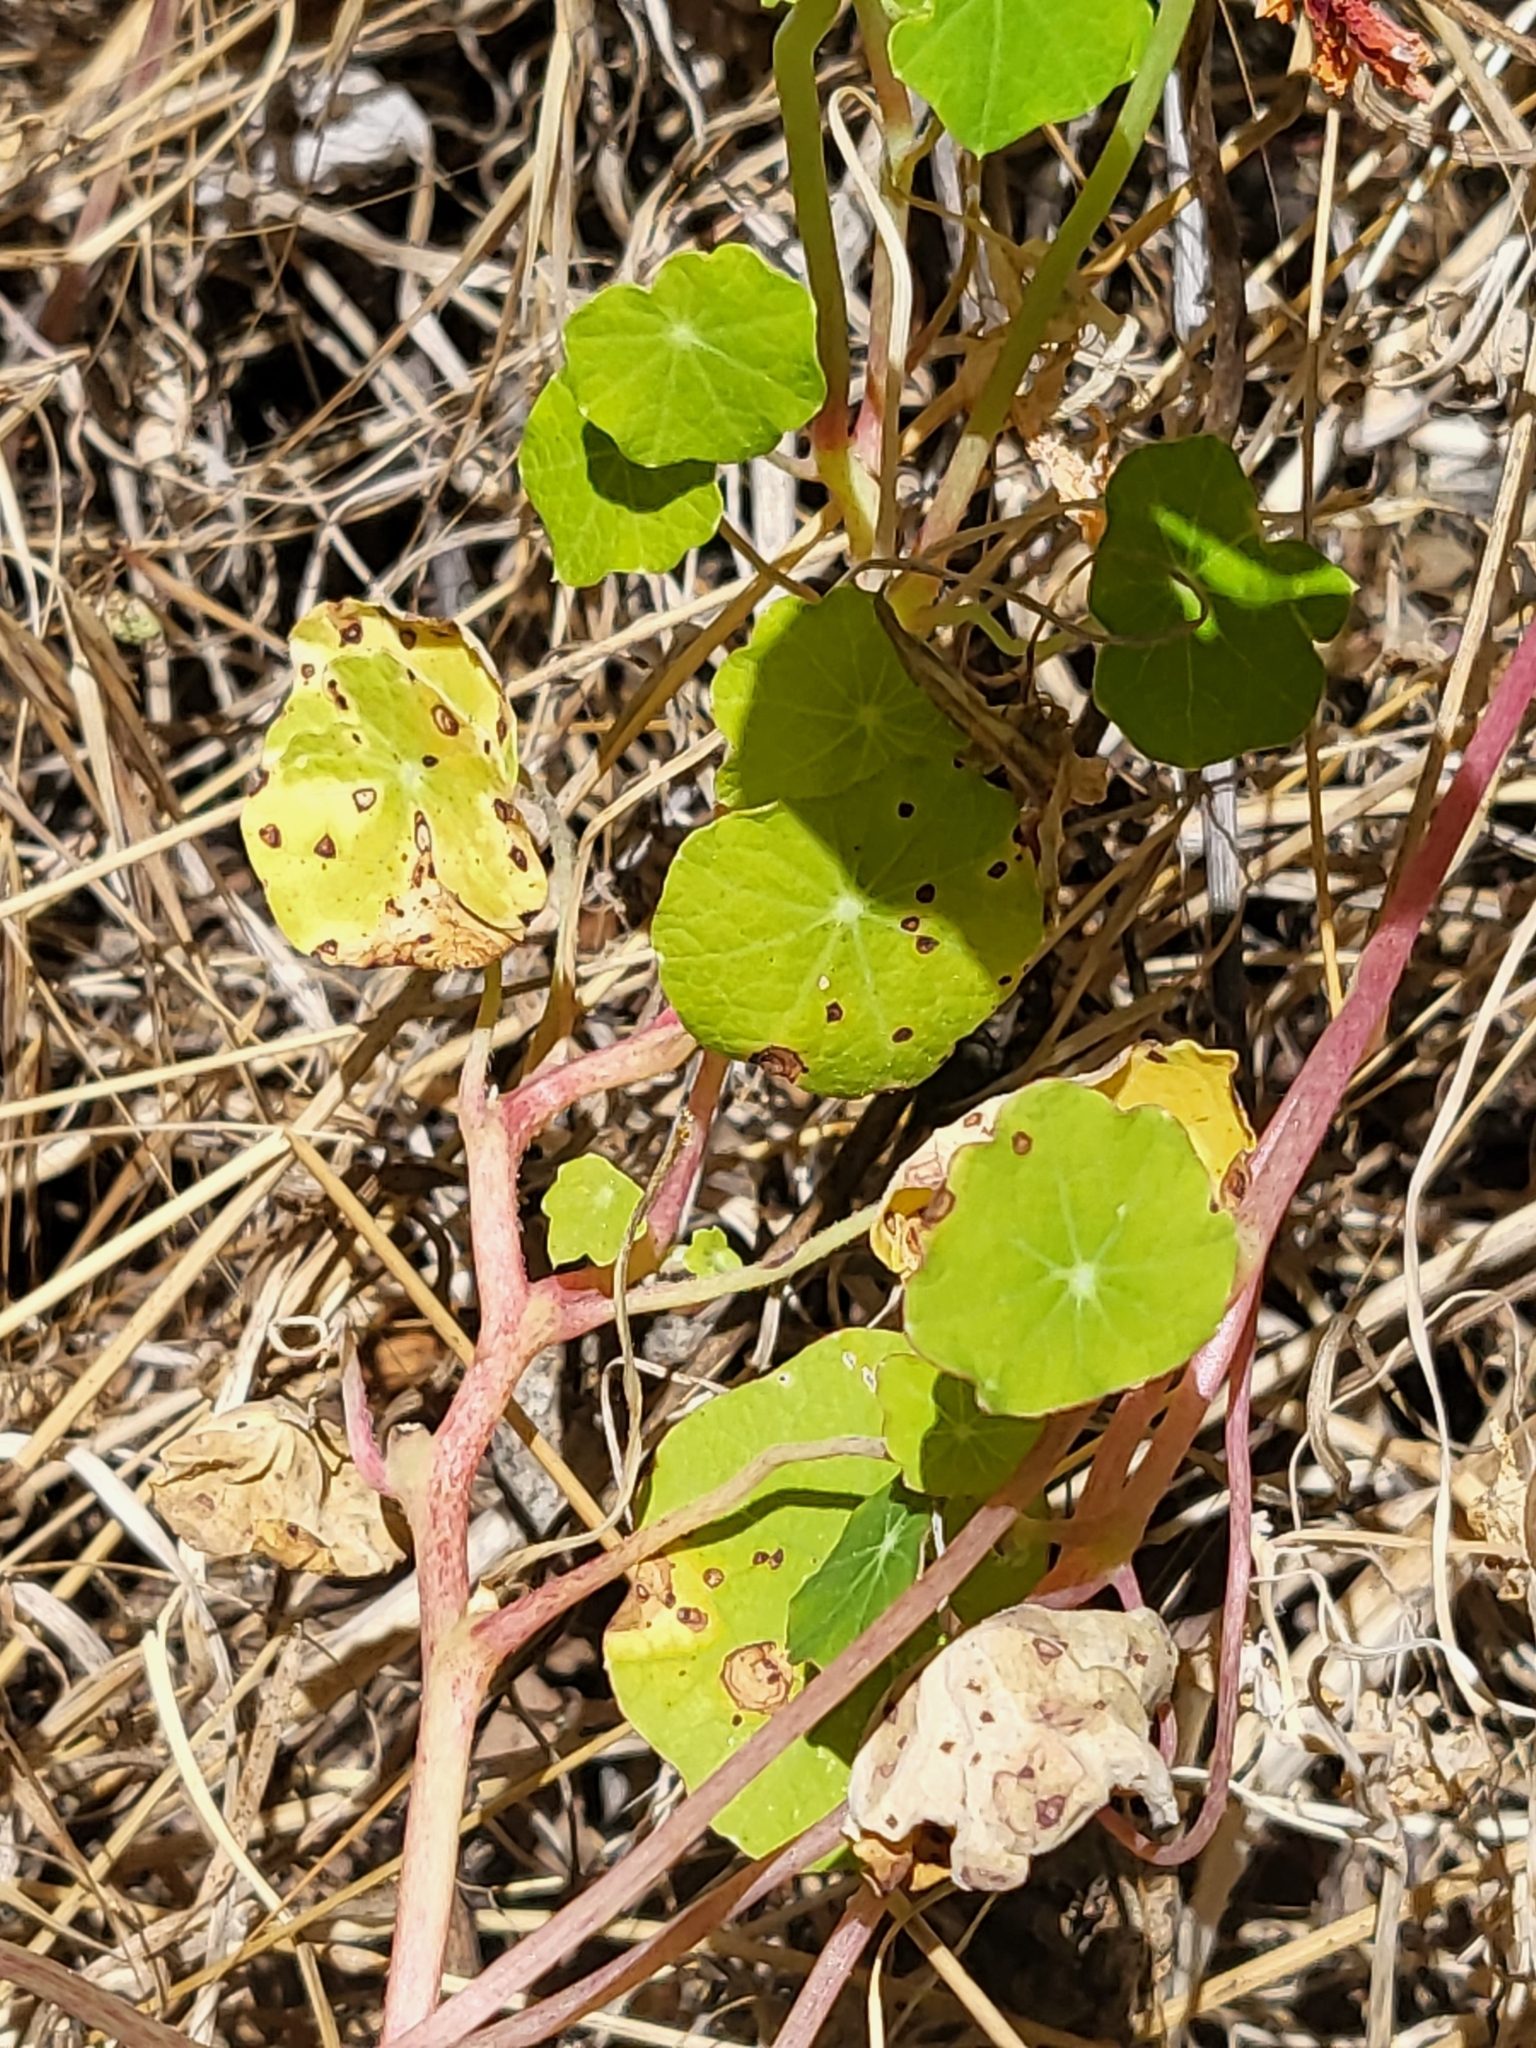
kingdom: Plantae
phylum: Tracheophyta
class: Magnoliopsida
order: Brassicales
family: Tropaeolaceae
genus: Tropaeolum
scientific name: Tropaeolum majus
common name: Nasturtium
